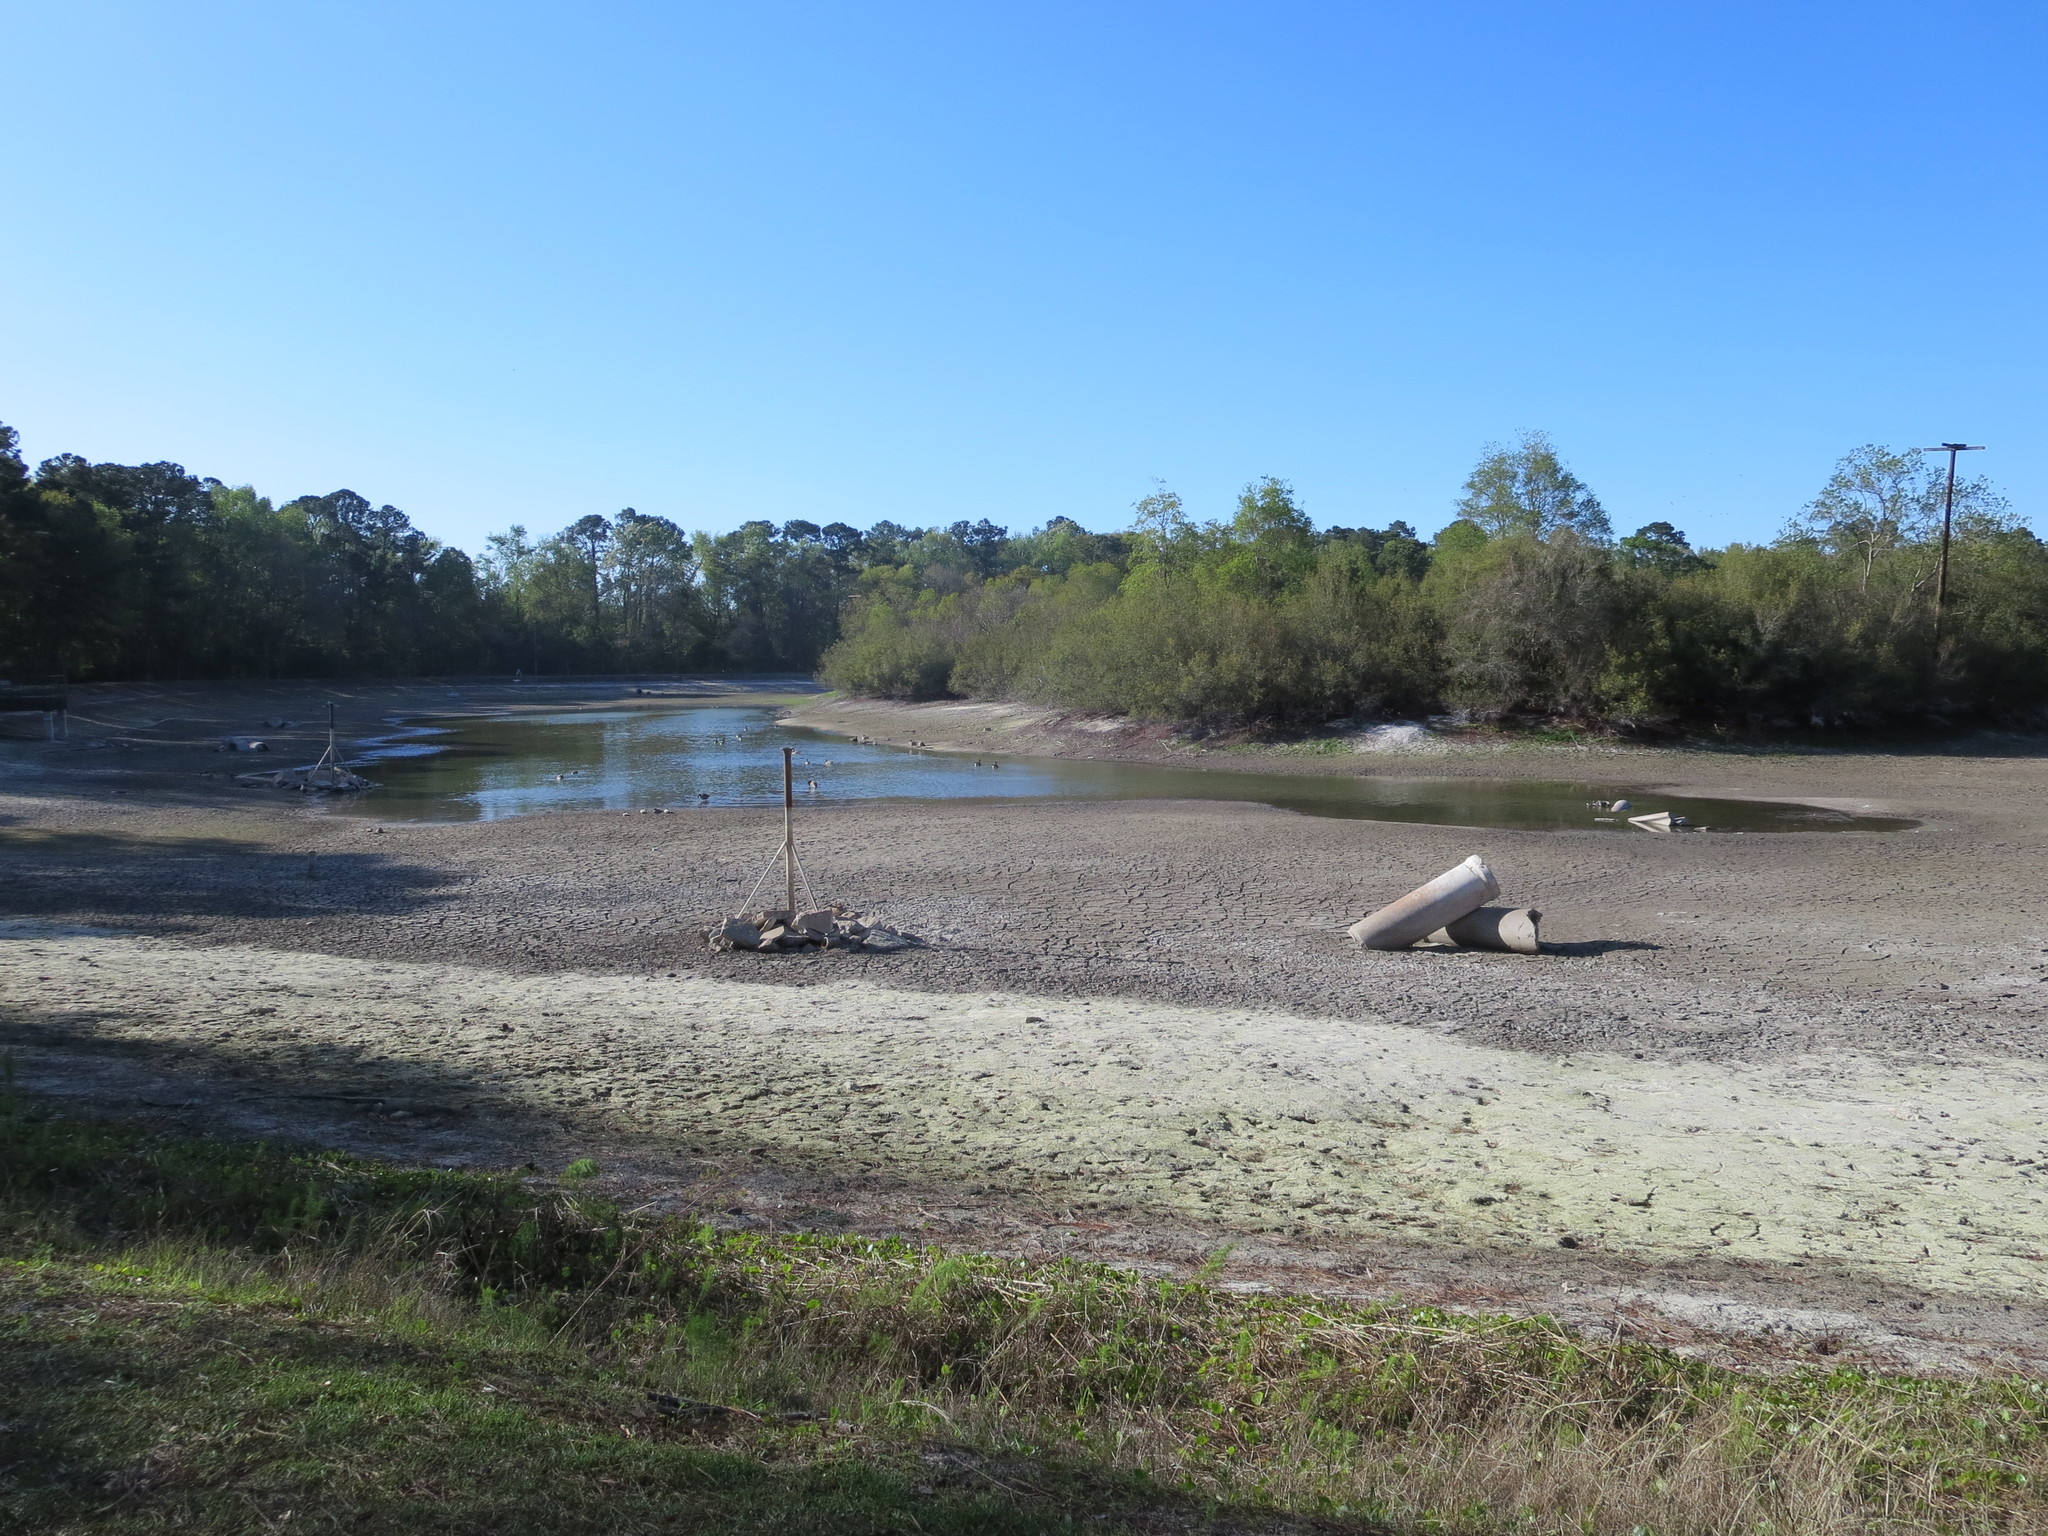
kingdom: Animalia
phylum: Chordata
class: Aves
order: Anseriformes
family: Anatidae
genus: Branta
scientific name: Branta canadensis
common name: Canada goose
